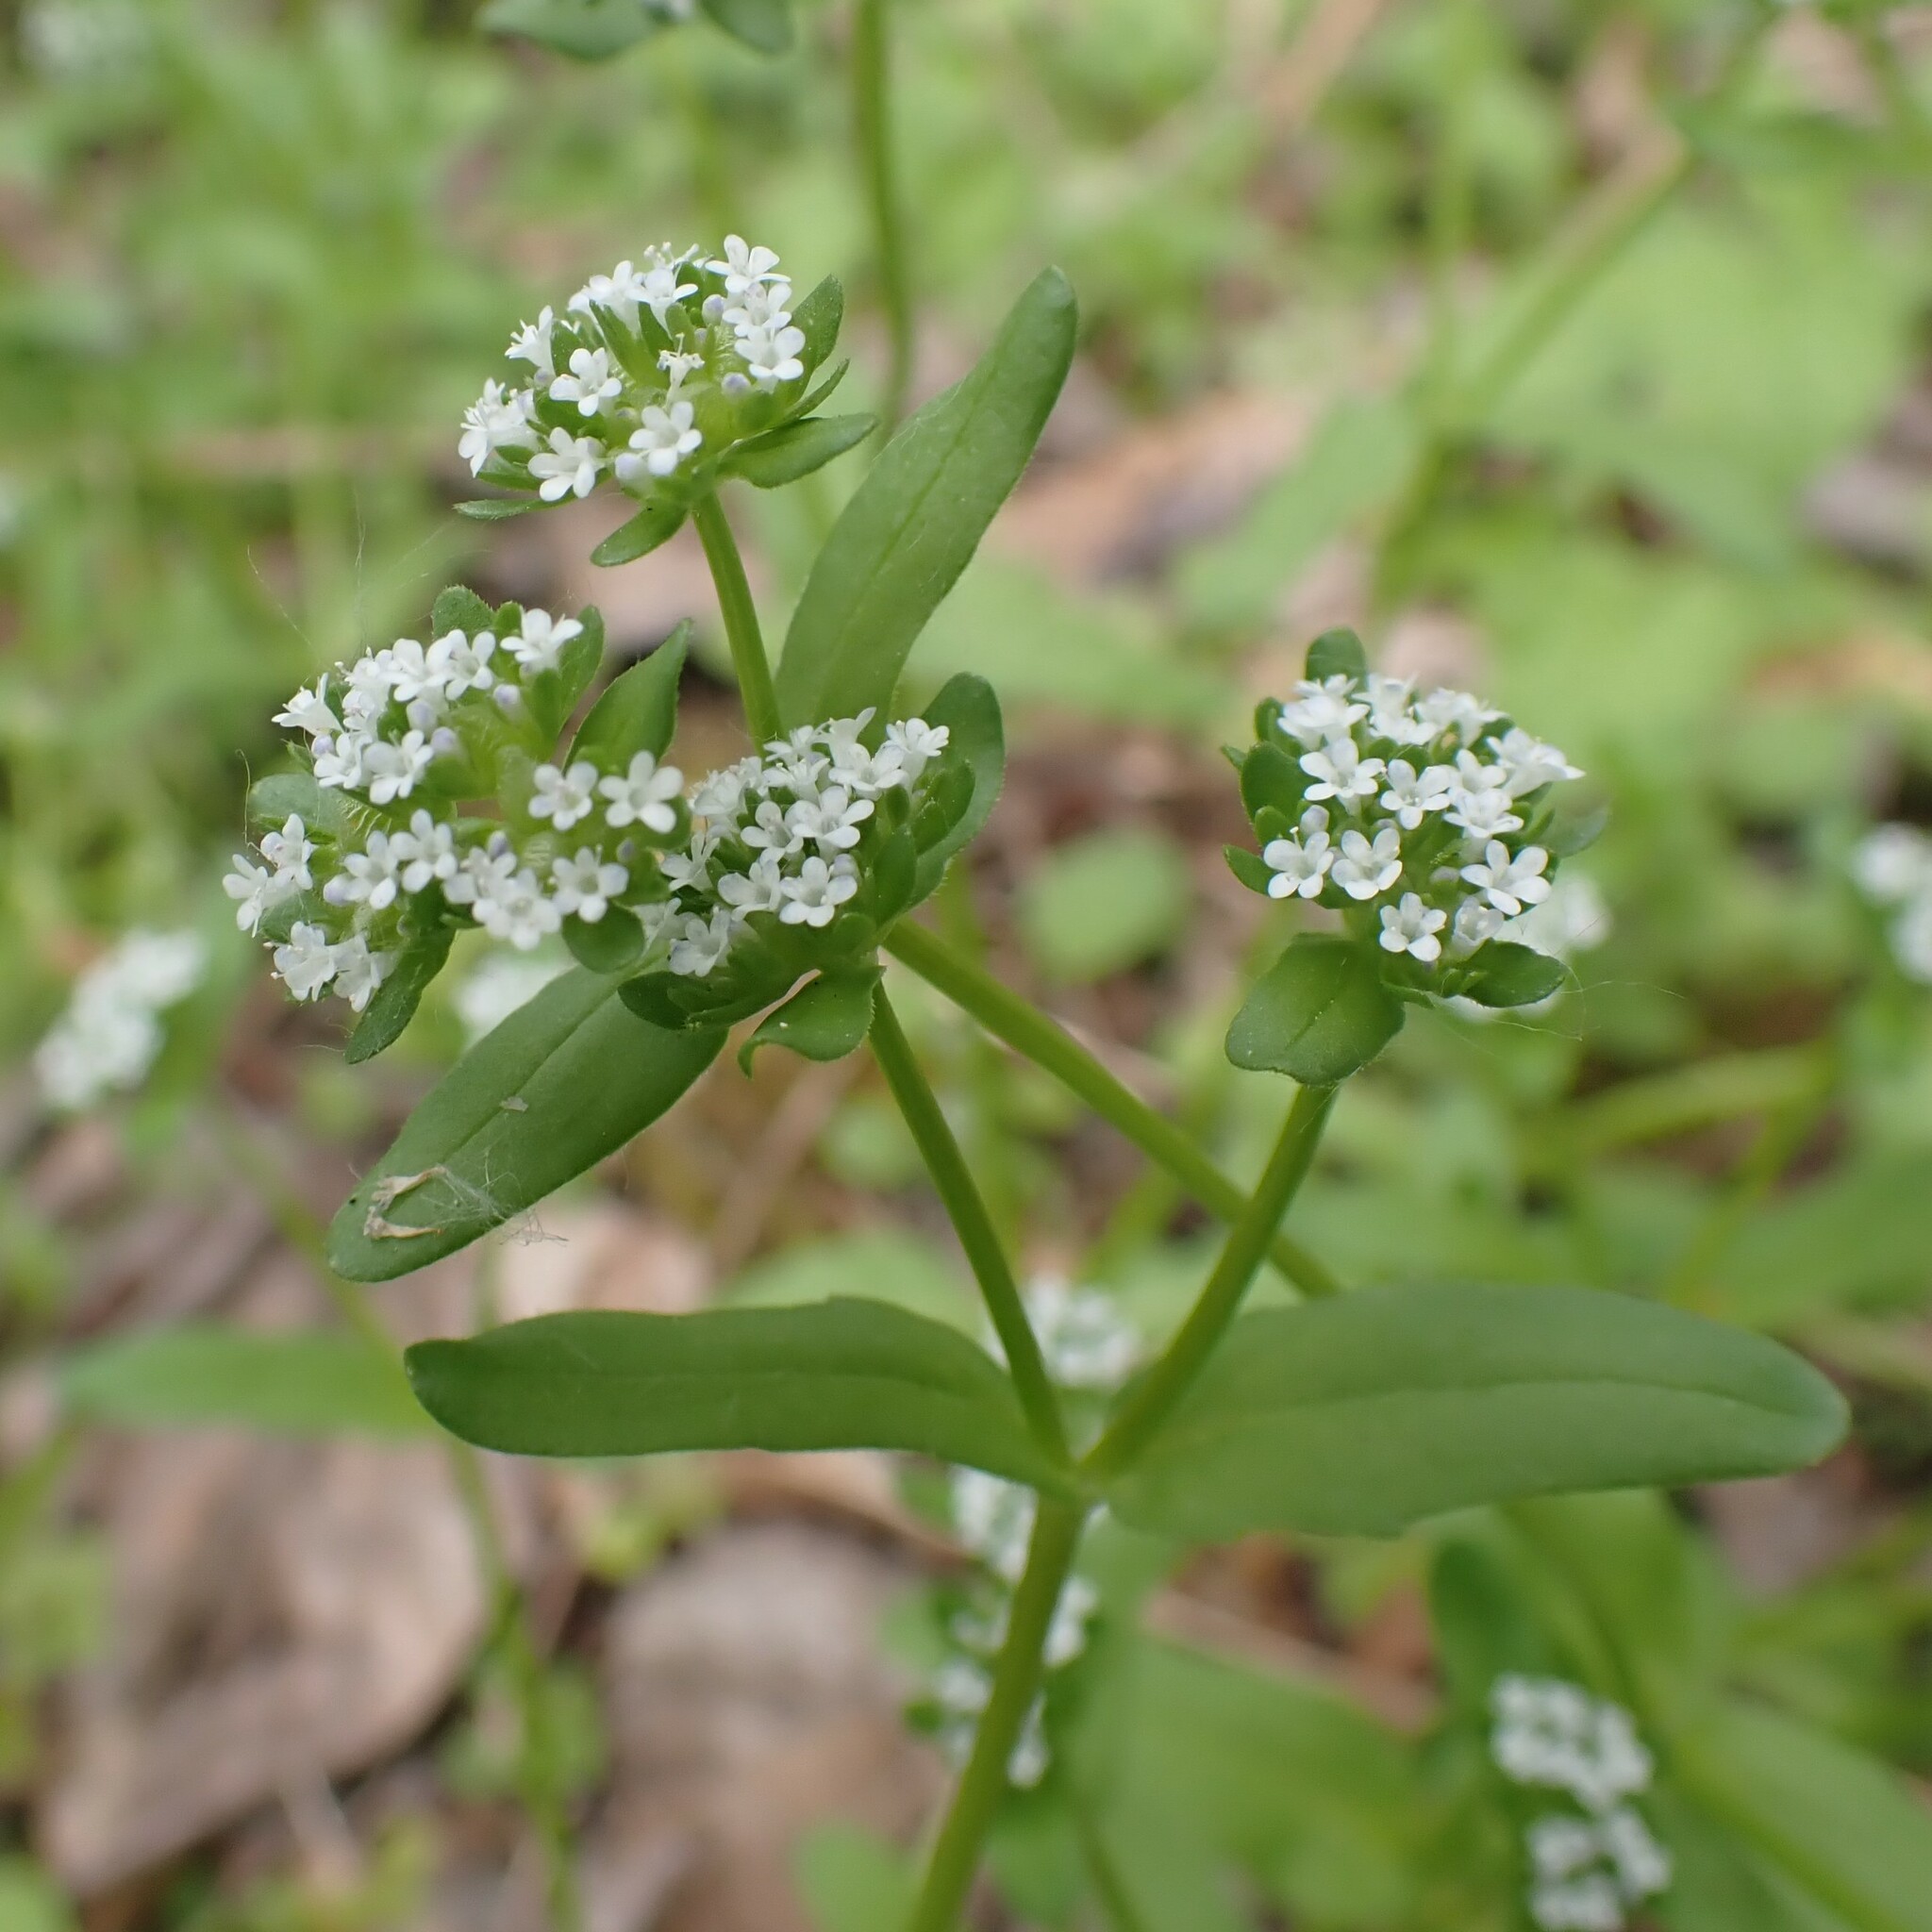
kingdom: Plantae
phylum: Tracheophyta
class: Magnoliopsida
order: Dipsacales
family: Caprifoliaceae
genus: Valerianella
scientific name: Valerianella locusta
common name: Common cornsalad
